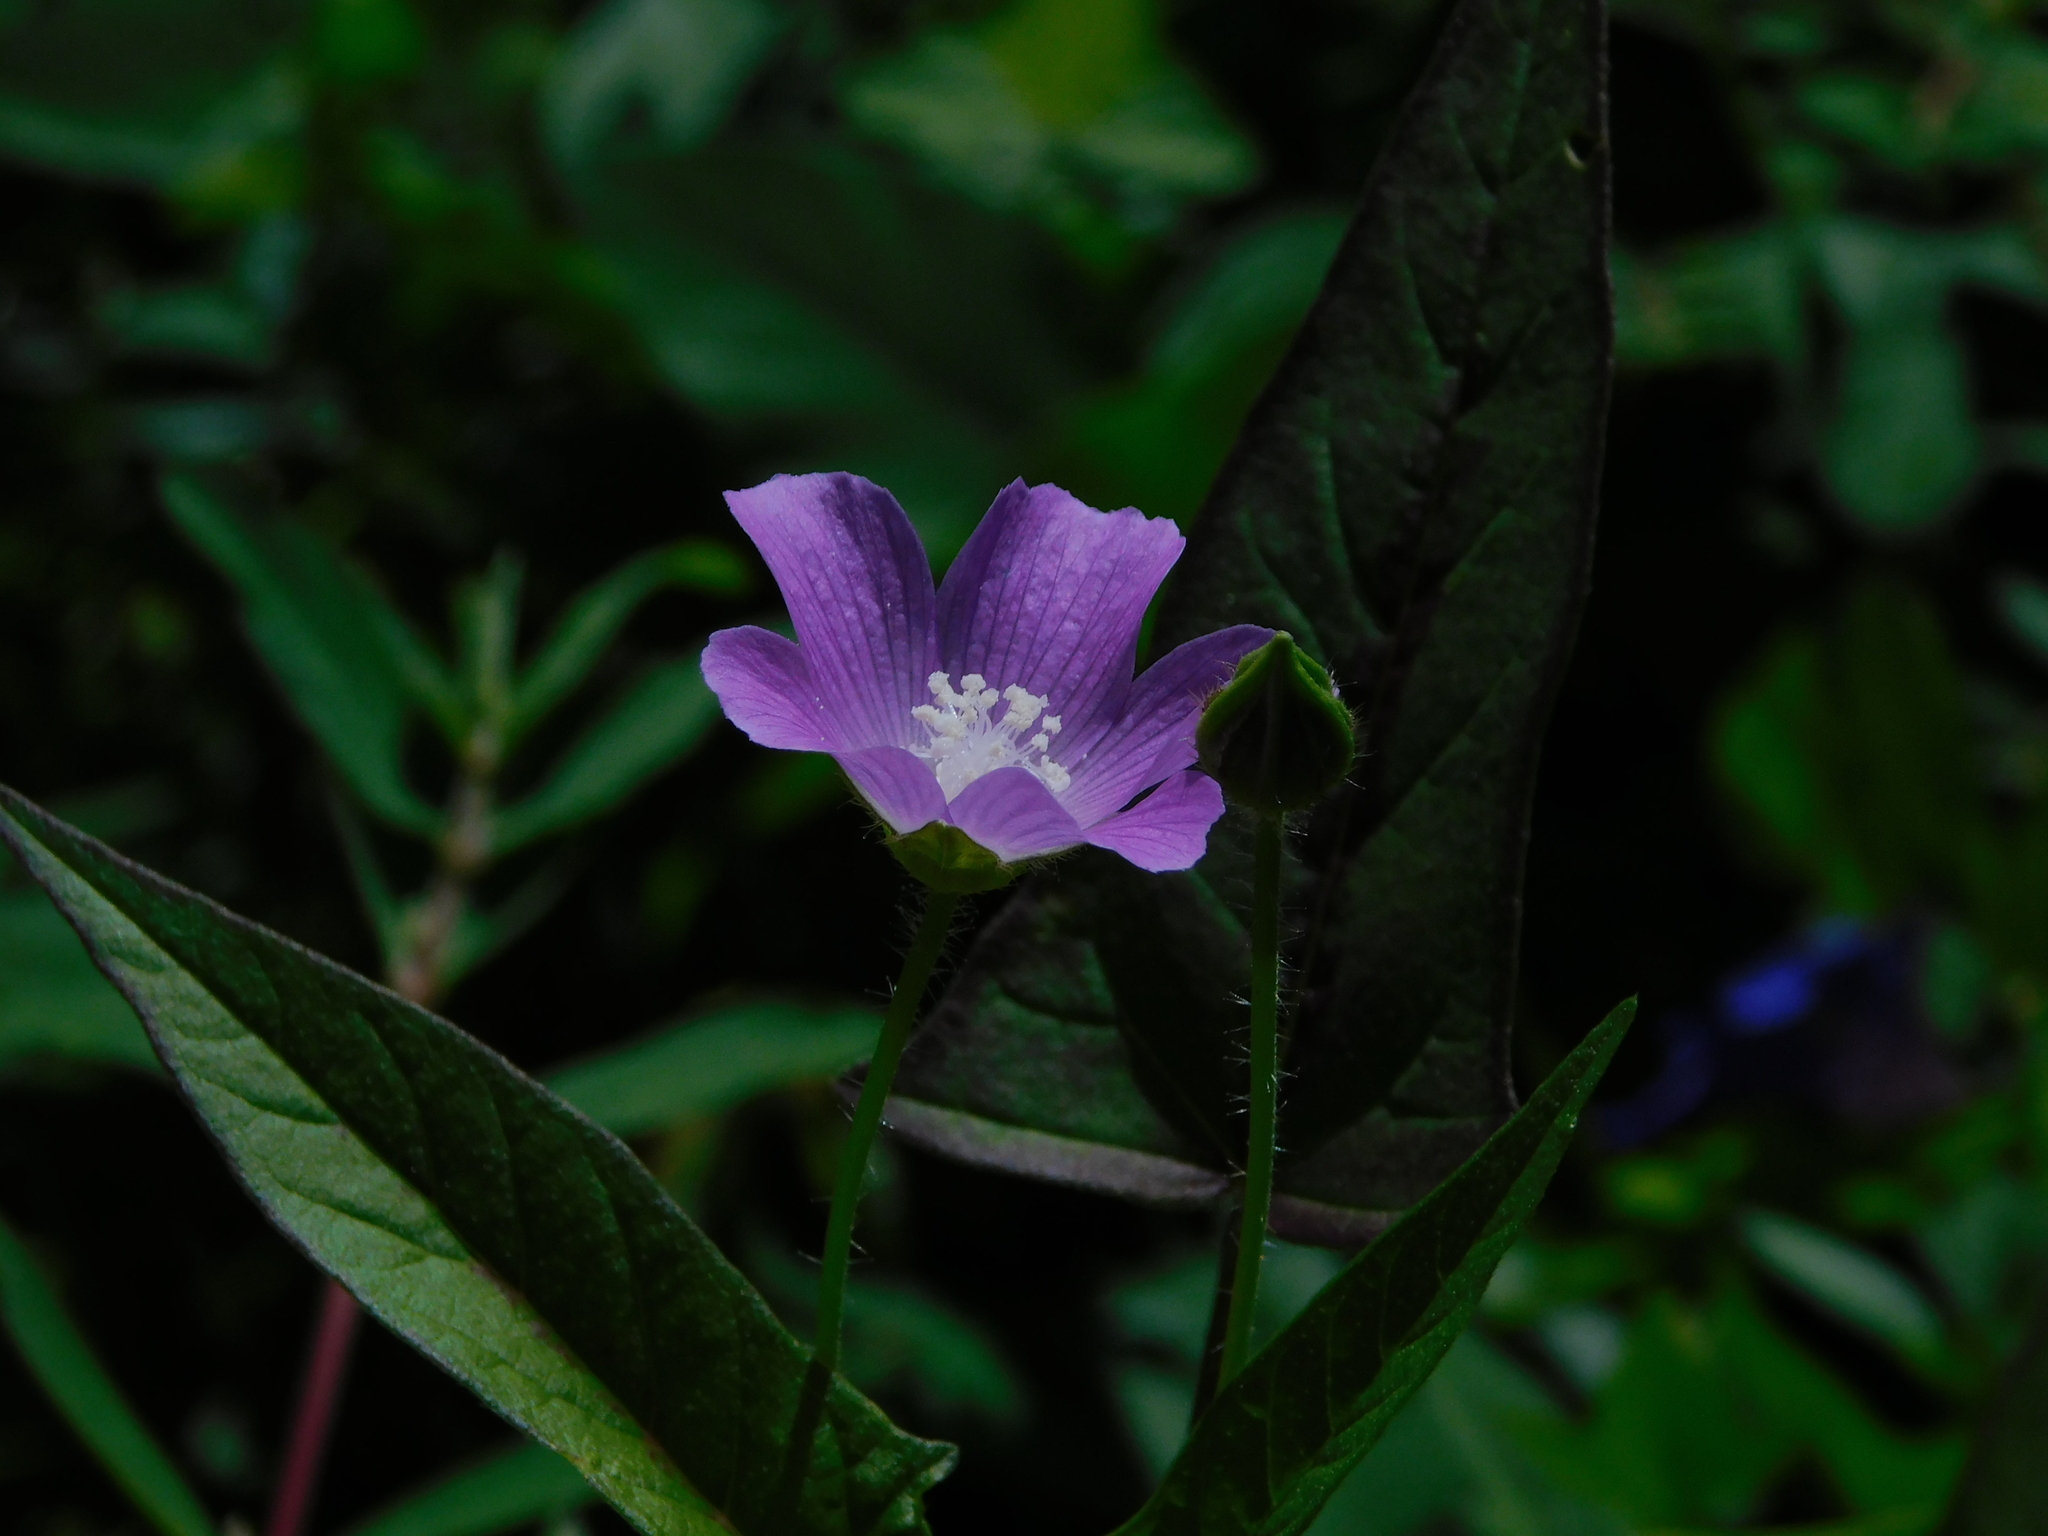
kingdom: Plantae
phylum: Tracheophyta
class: Magnoliopsida
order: Malvales
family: Malvaceae
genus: Anoda
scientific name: Anoda cristata
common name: Spurred anoda
